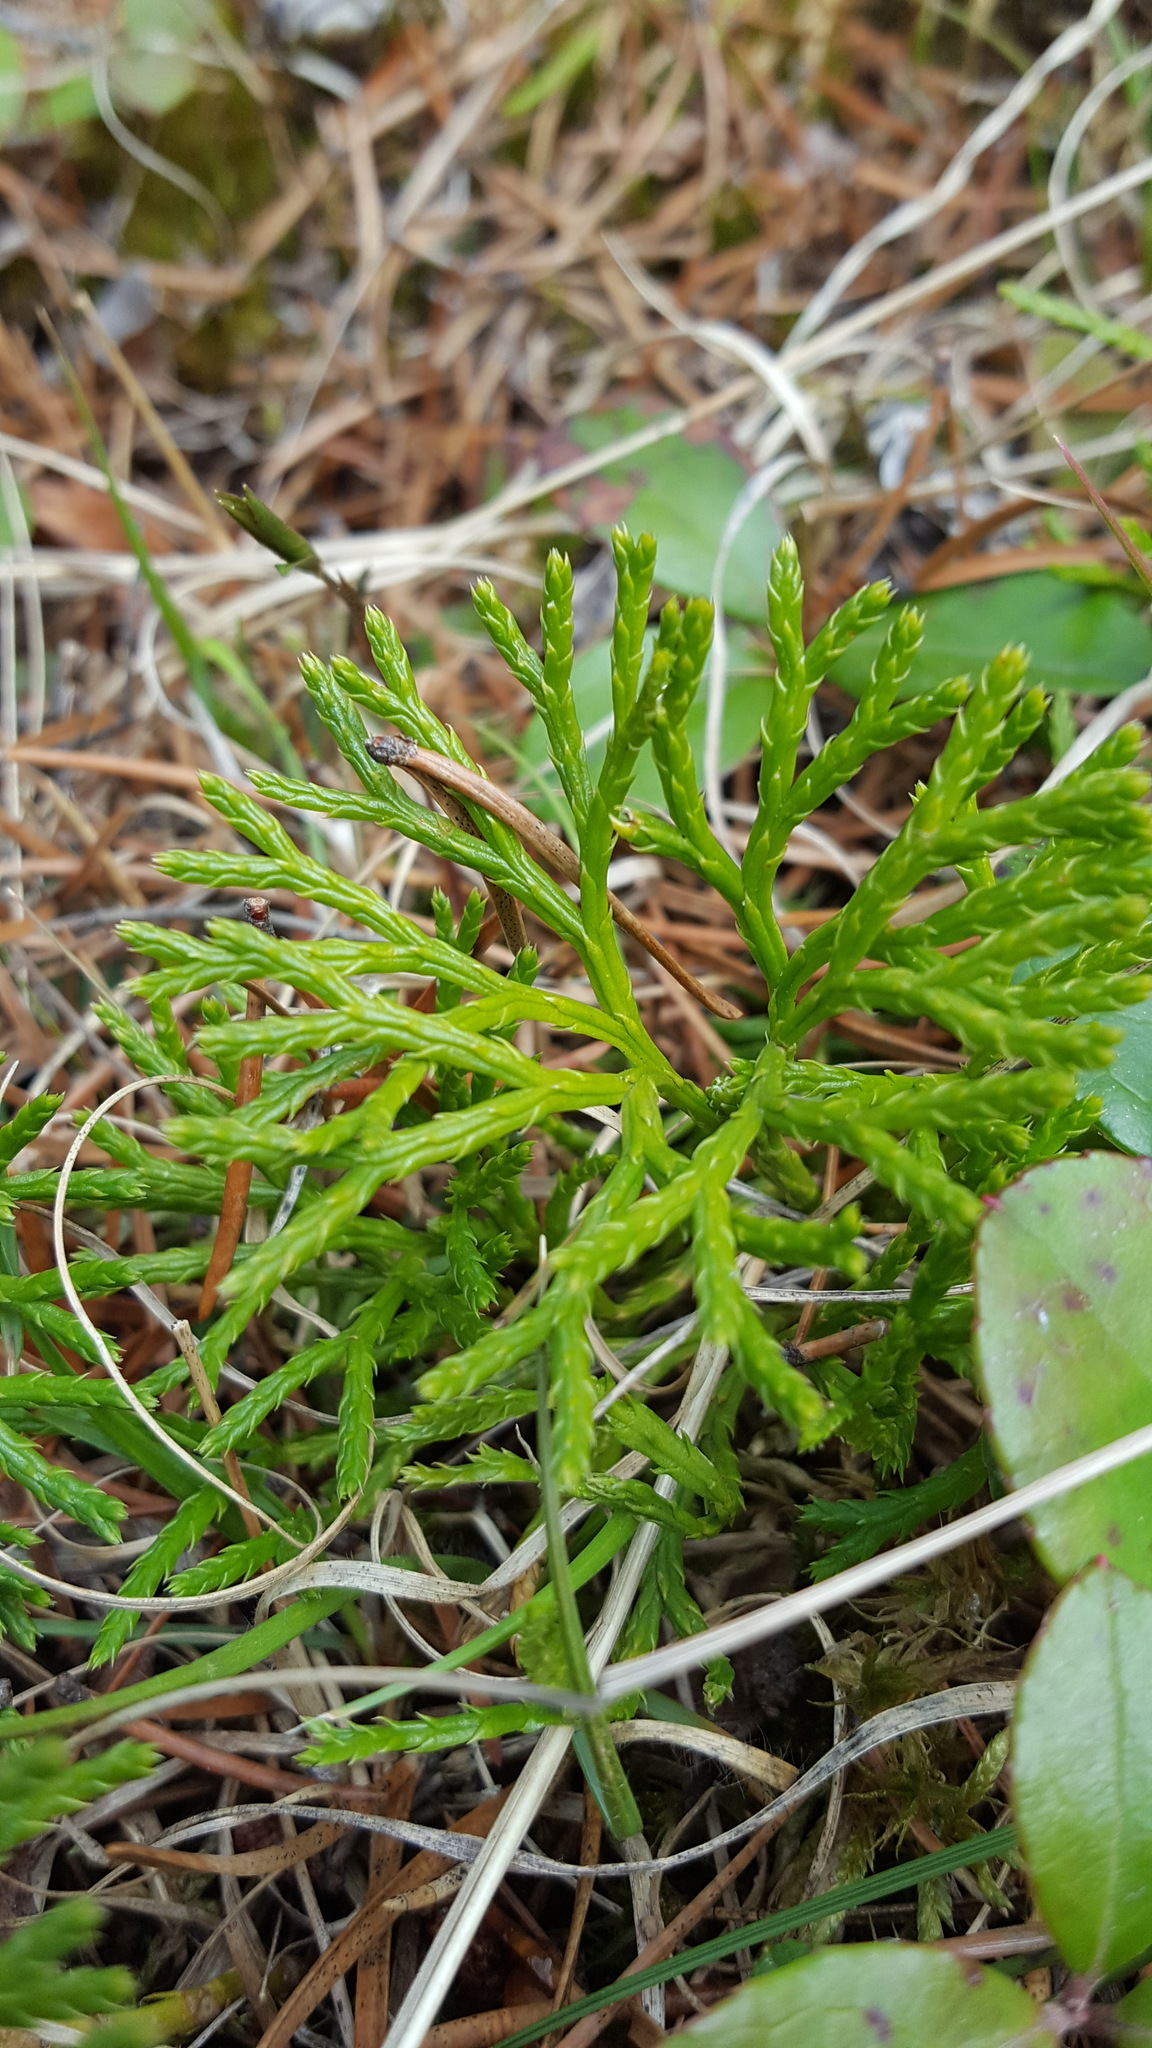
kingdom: Plantae
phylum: Tracheophyta
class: Lycopodiopsida
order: Lycopodiales
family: Lycopodiaceae
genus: Diphasiastrum
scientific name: Diphasiastrum digitatum
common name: Southern running-pine
